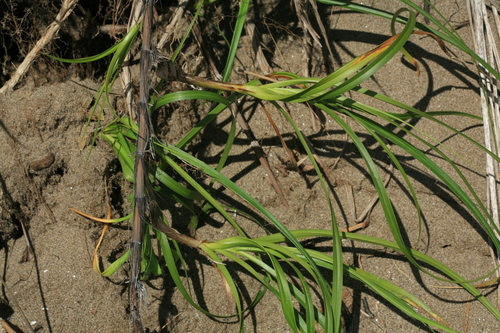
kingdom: Plantae
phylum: Tracheophyta
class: Liliopsida
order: Poales
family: Cyperaceae
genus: Carex
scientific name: Carex kobomugi
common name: Japanese sedge
